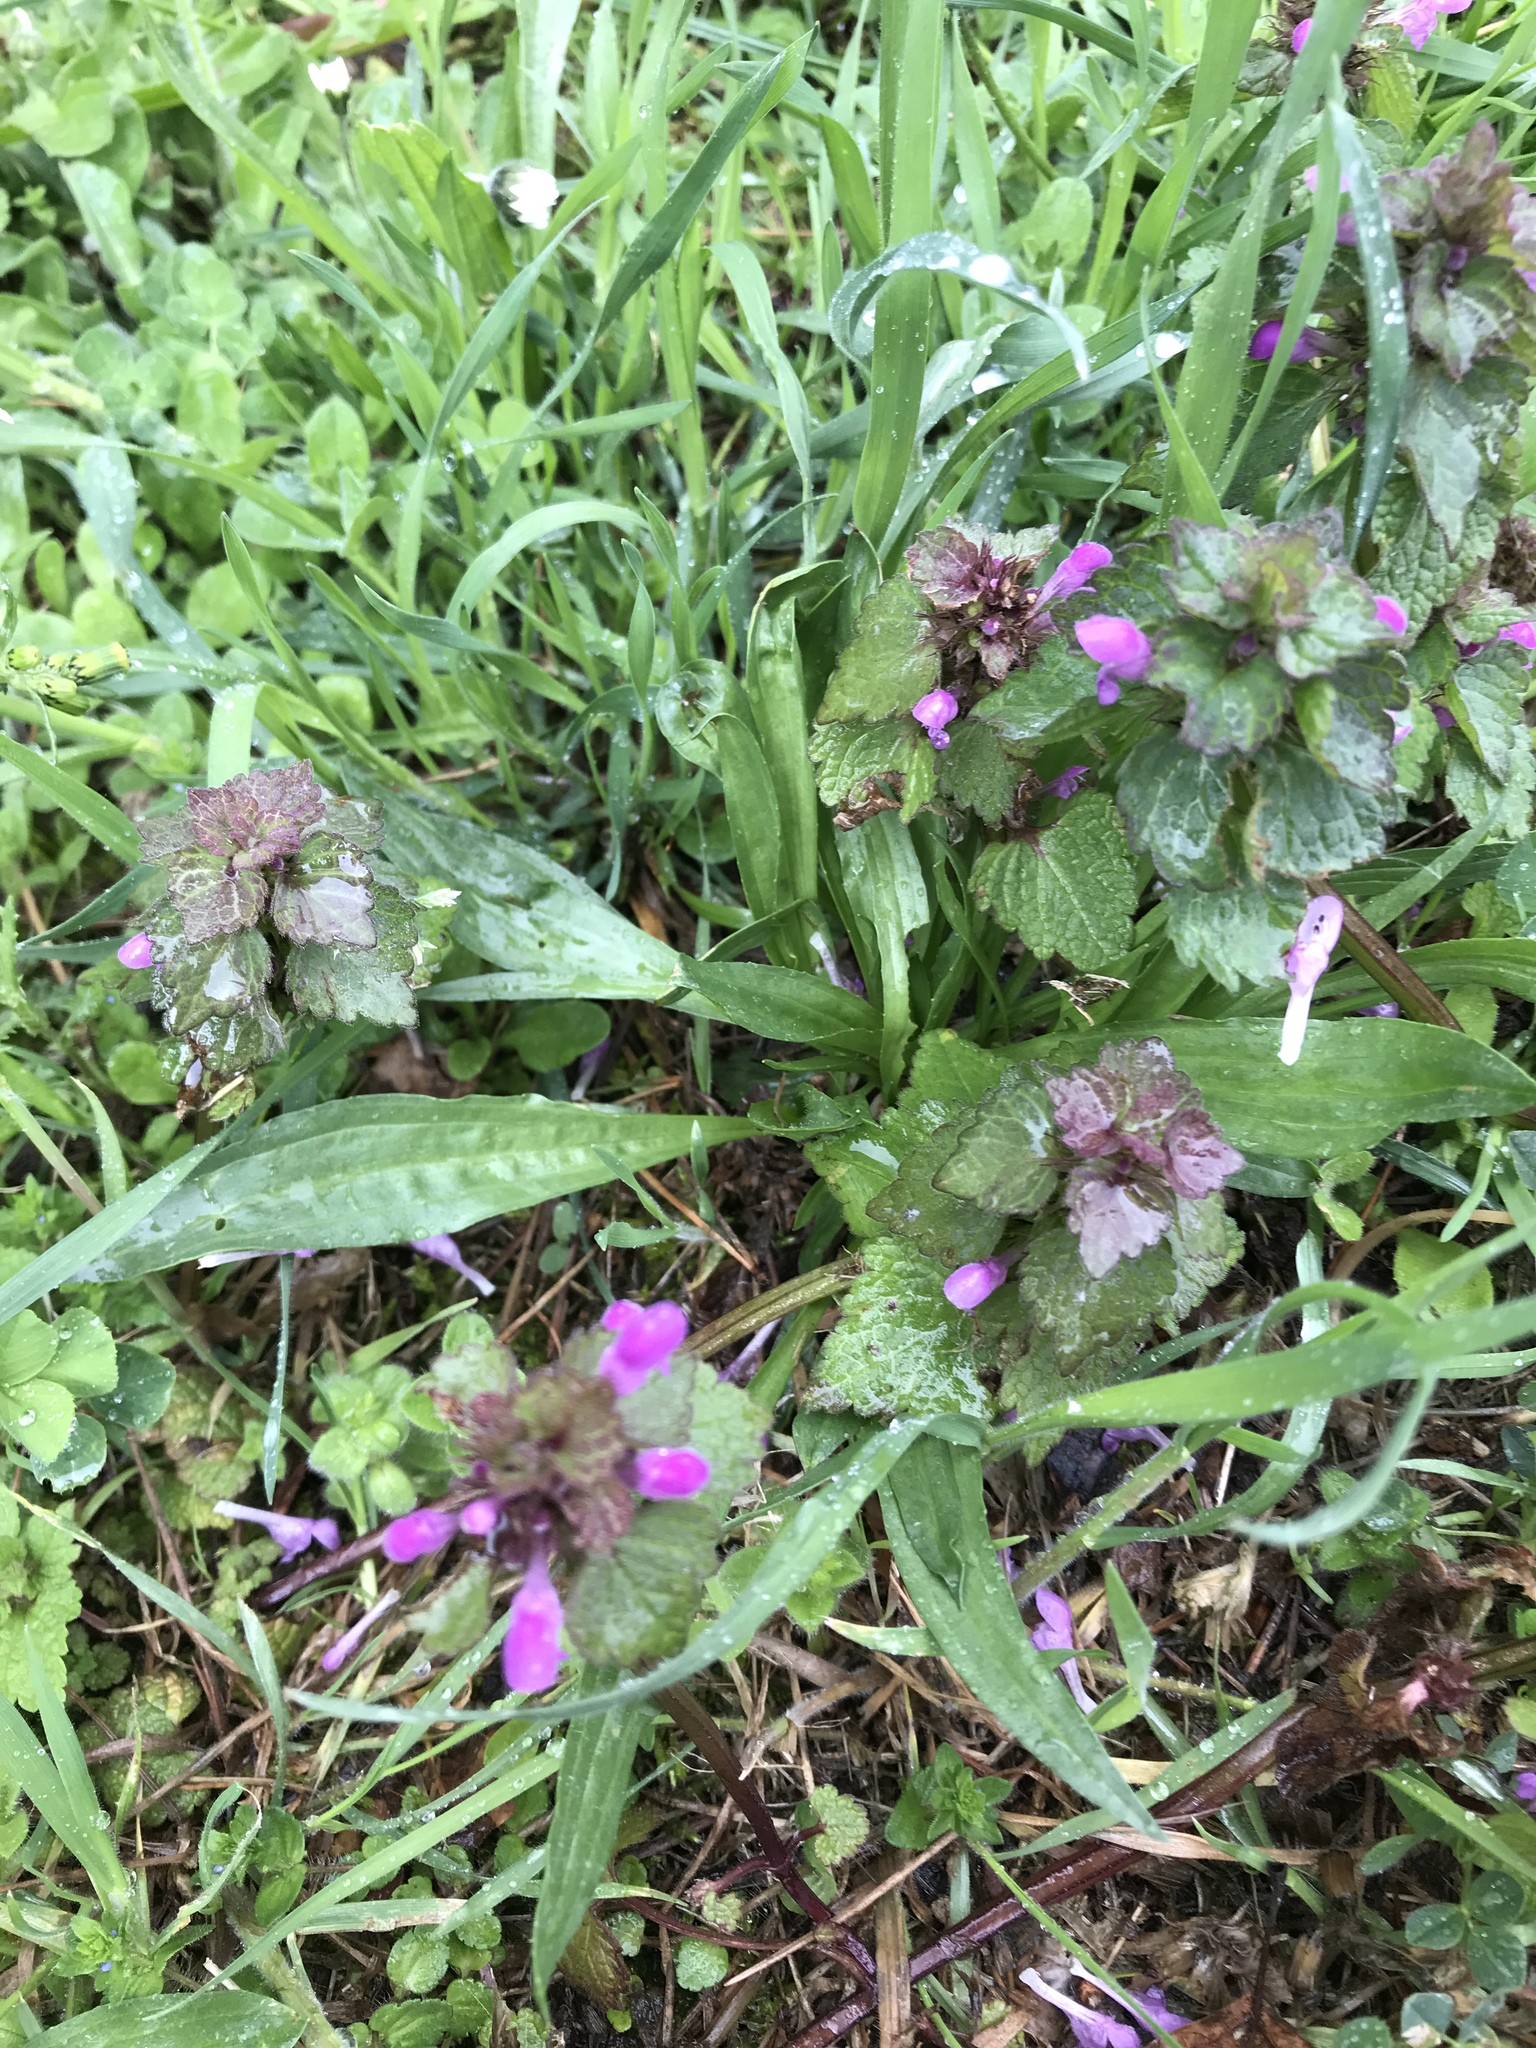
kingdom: Plantae
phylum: Tracheophyta
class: Magnoliopsida
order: Lamiales
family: Lamiaceae
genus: Lamium
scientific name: Lamium purpureum
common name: Red dead-nettle
